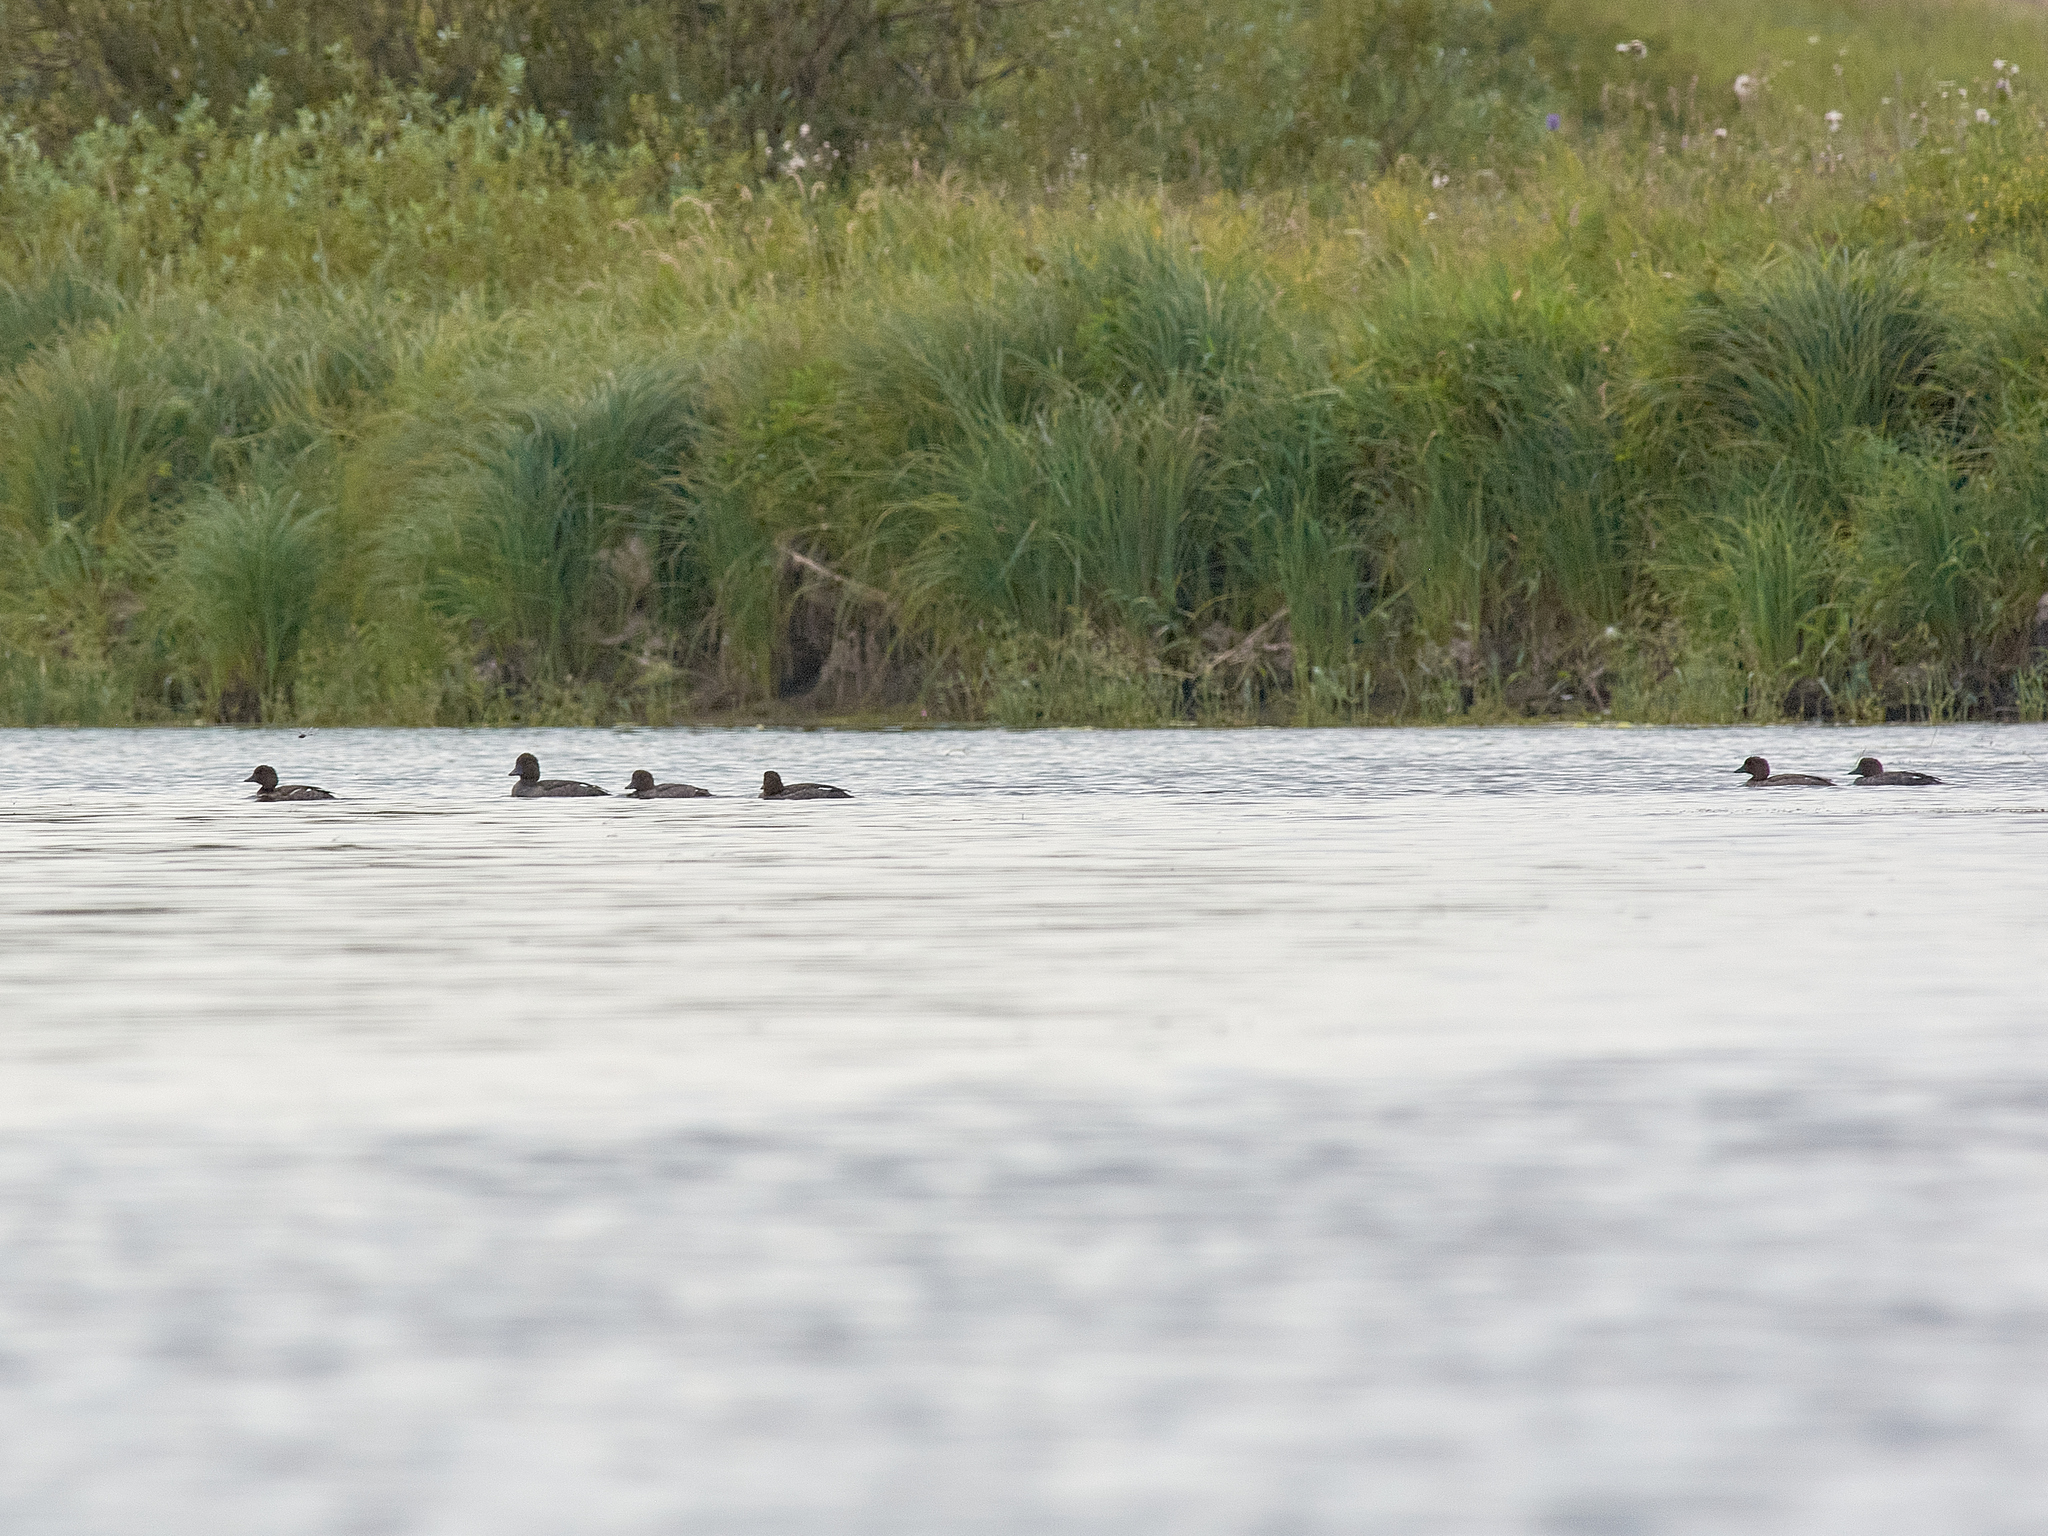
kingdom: Animalia
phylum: Chordata
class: Aves
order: Anseriformes
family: Anatidae
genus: Bucephala
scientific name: Bucephala clangula
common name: Common goldeneye
